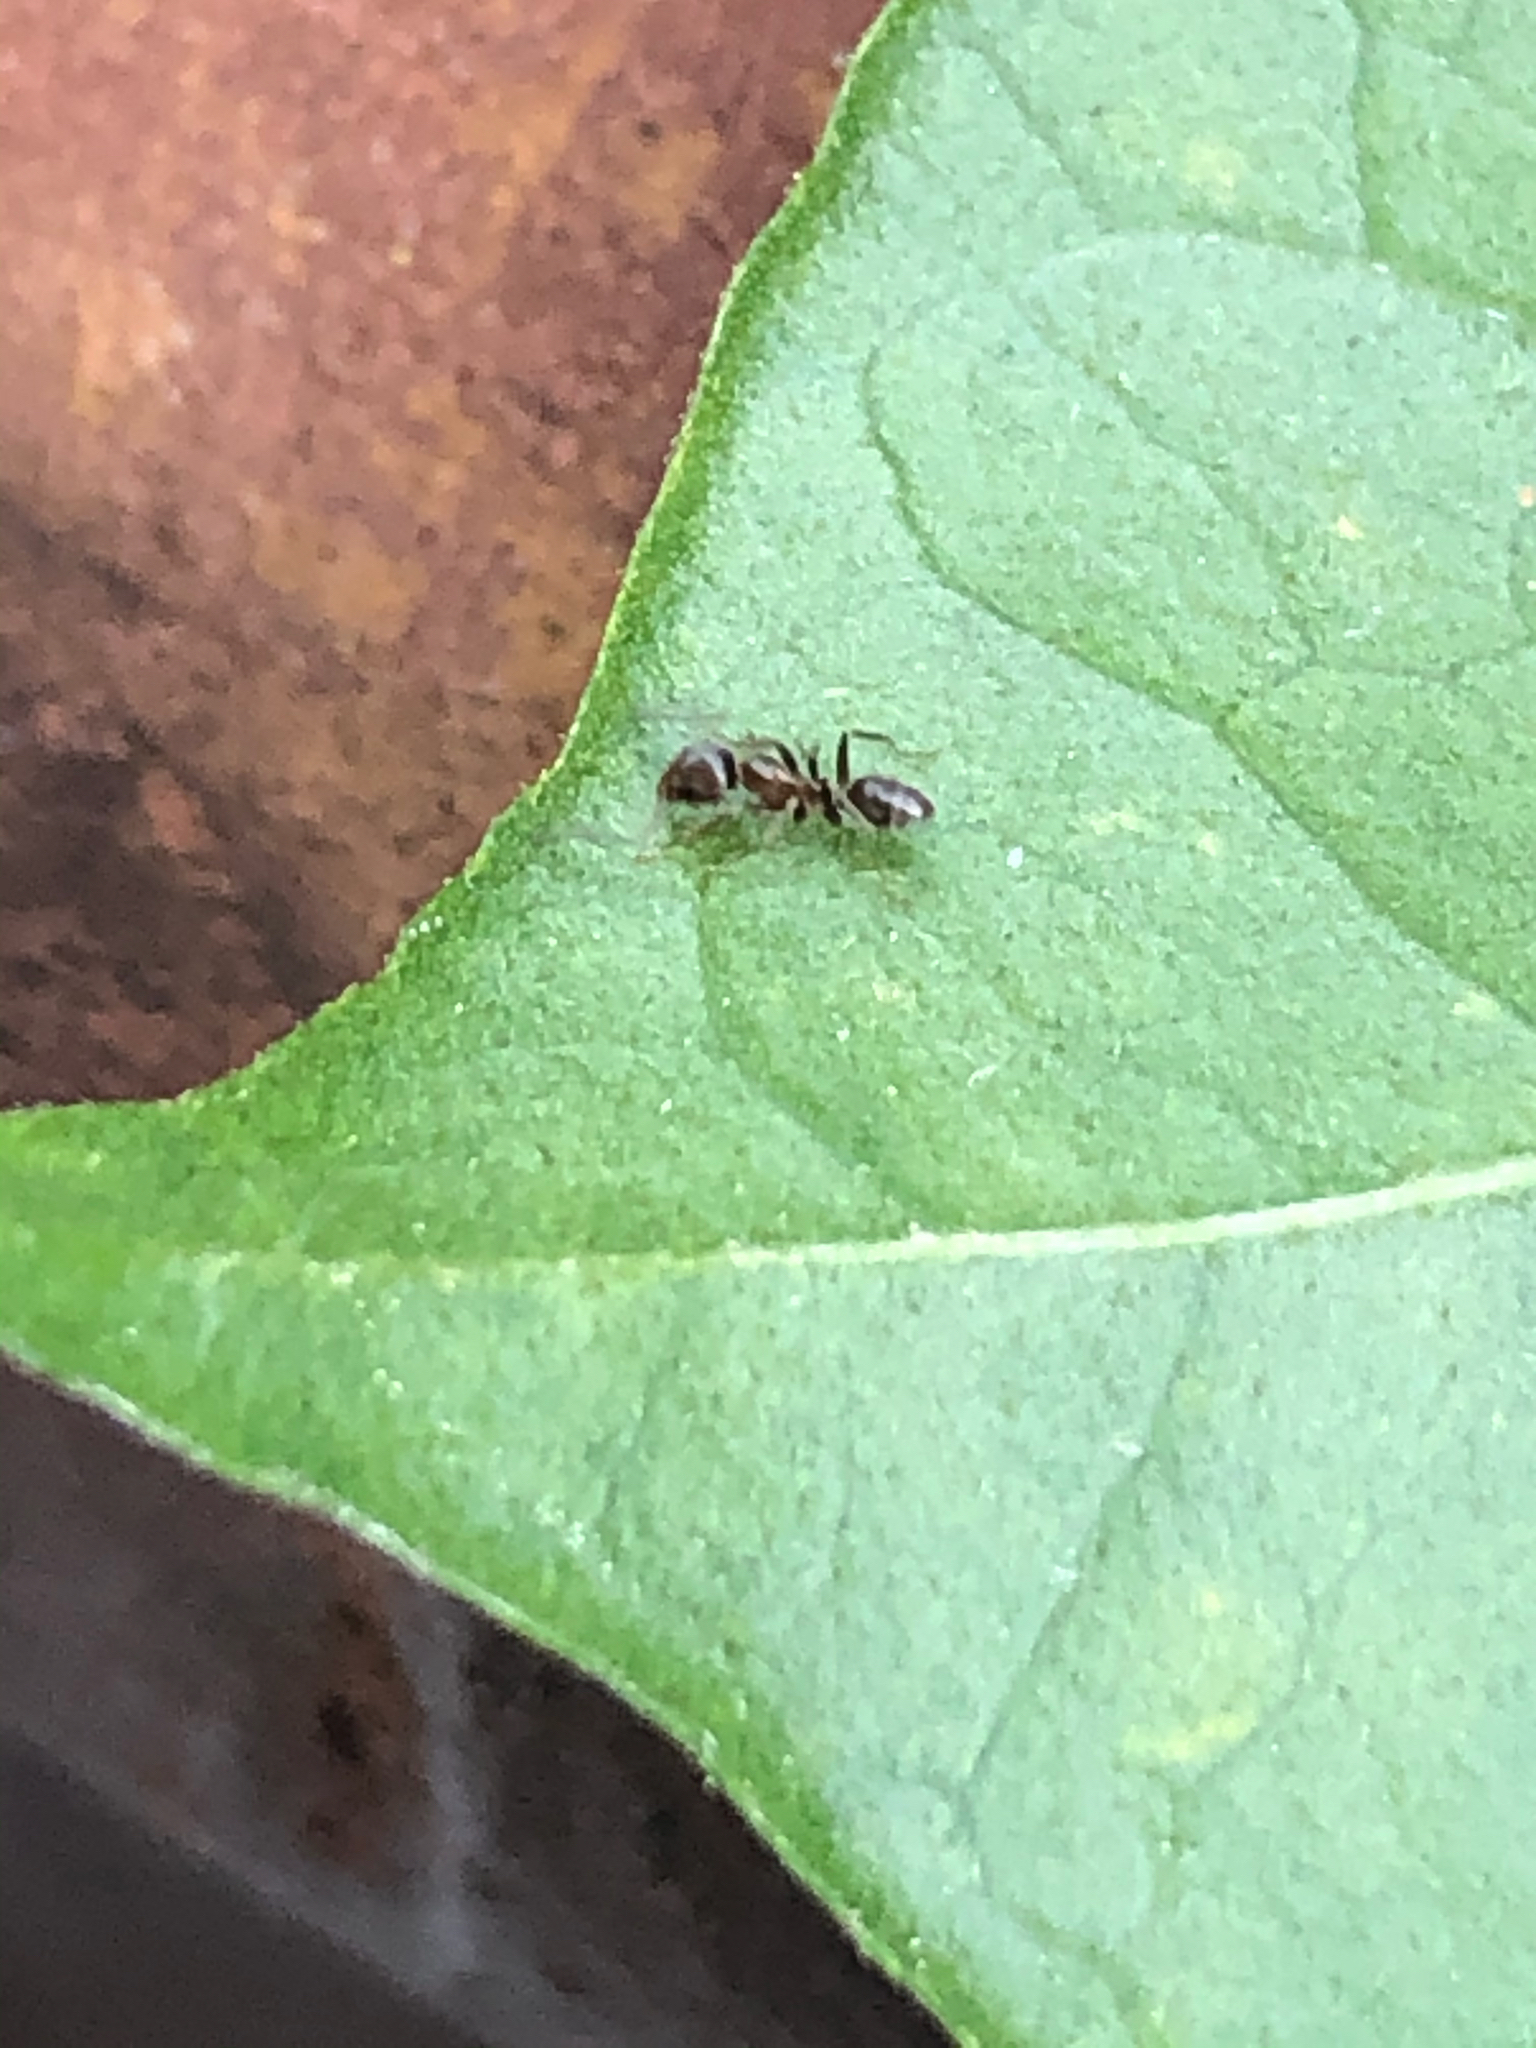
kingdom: Animalia
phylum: Arthropoda
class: Insecta
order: Hymenoptera
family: Formicidae
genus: Linepithema
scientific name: Linepithema humile
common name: Argentine ant
